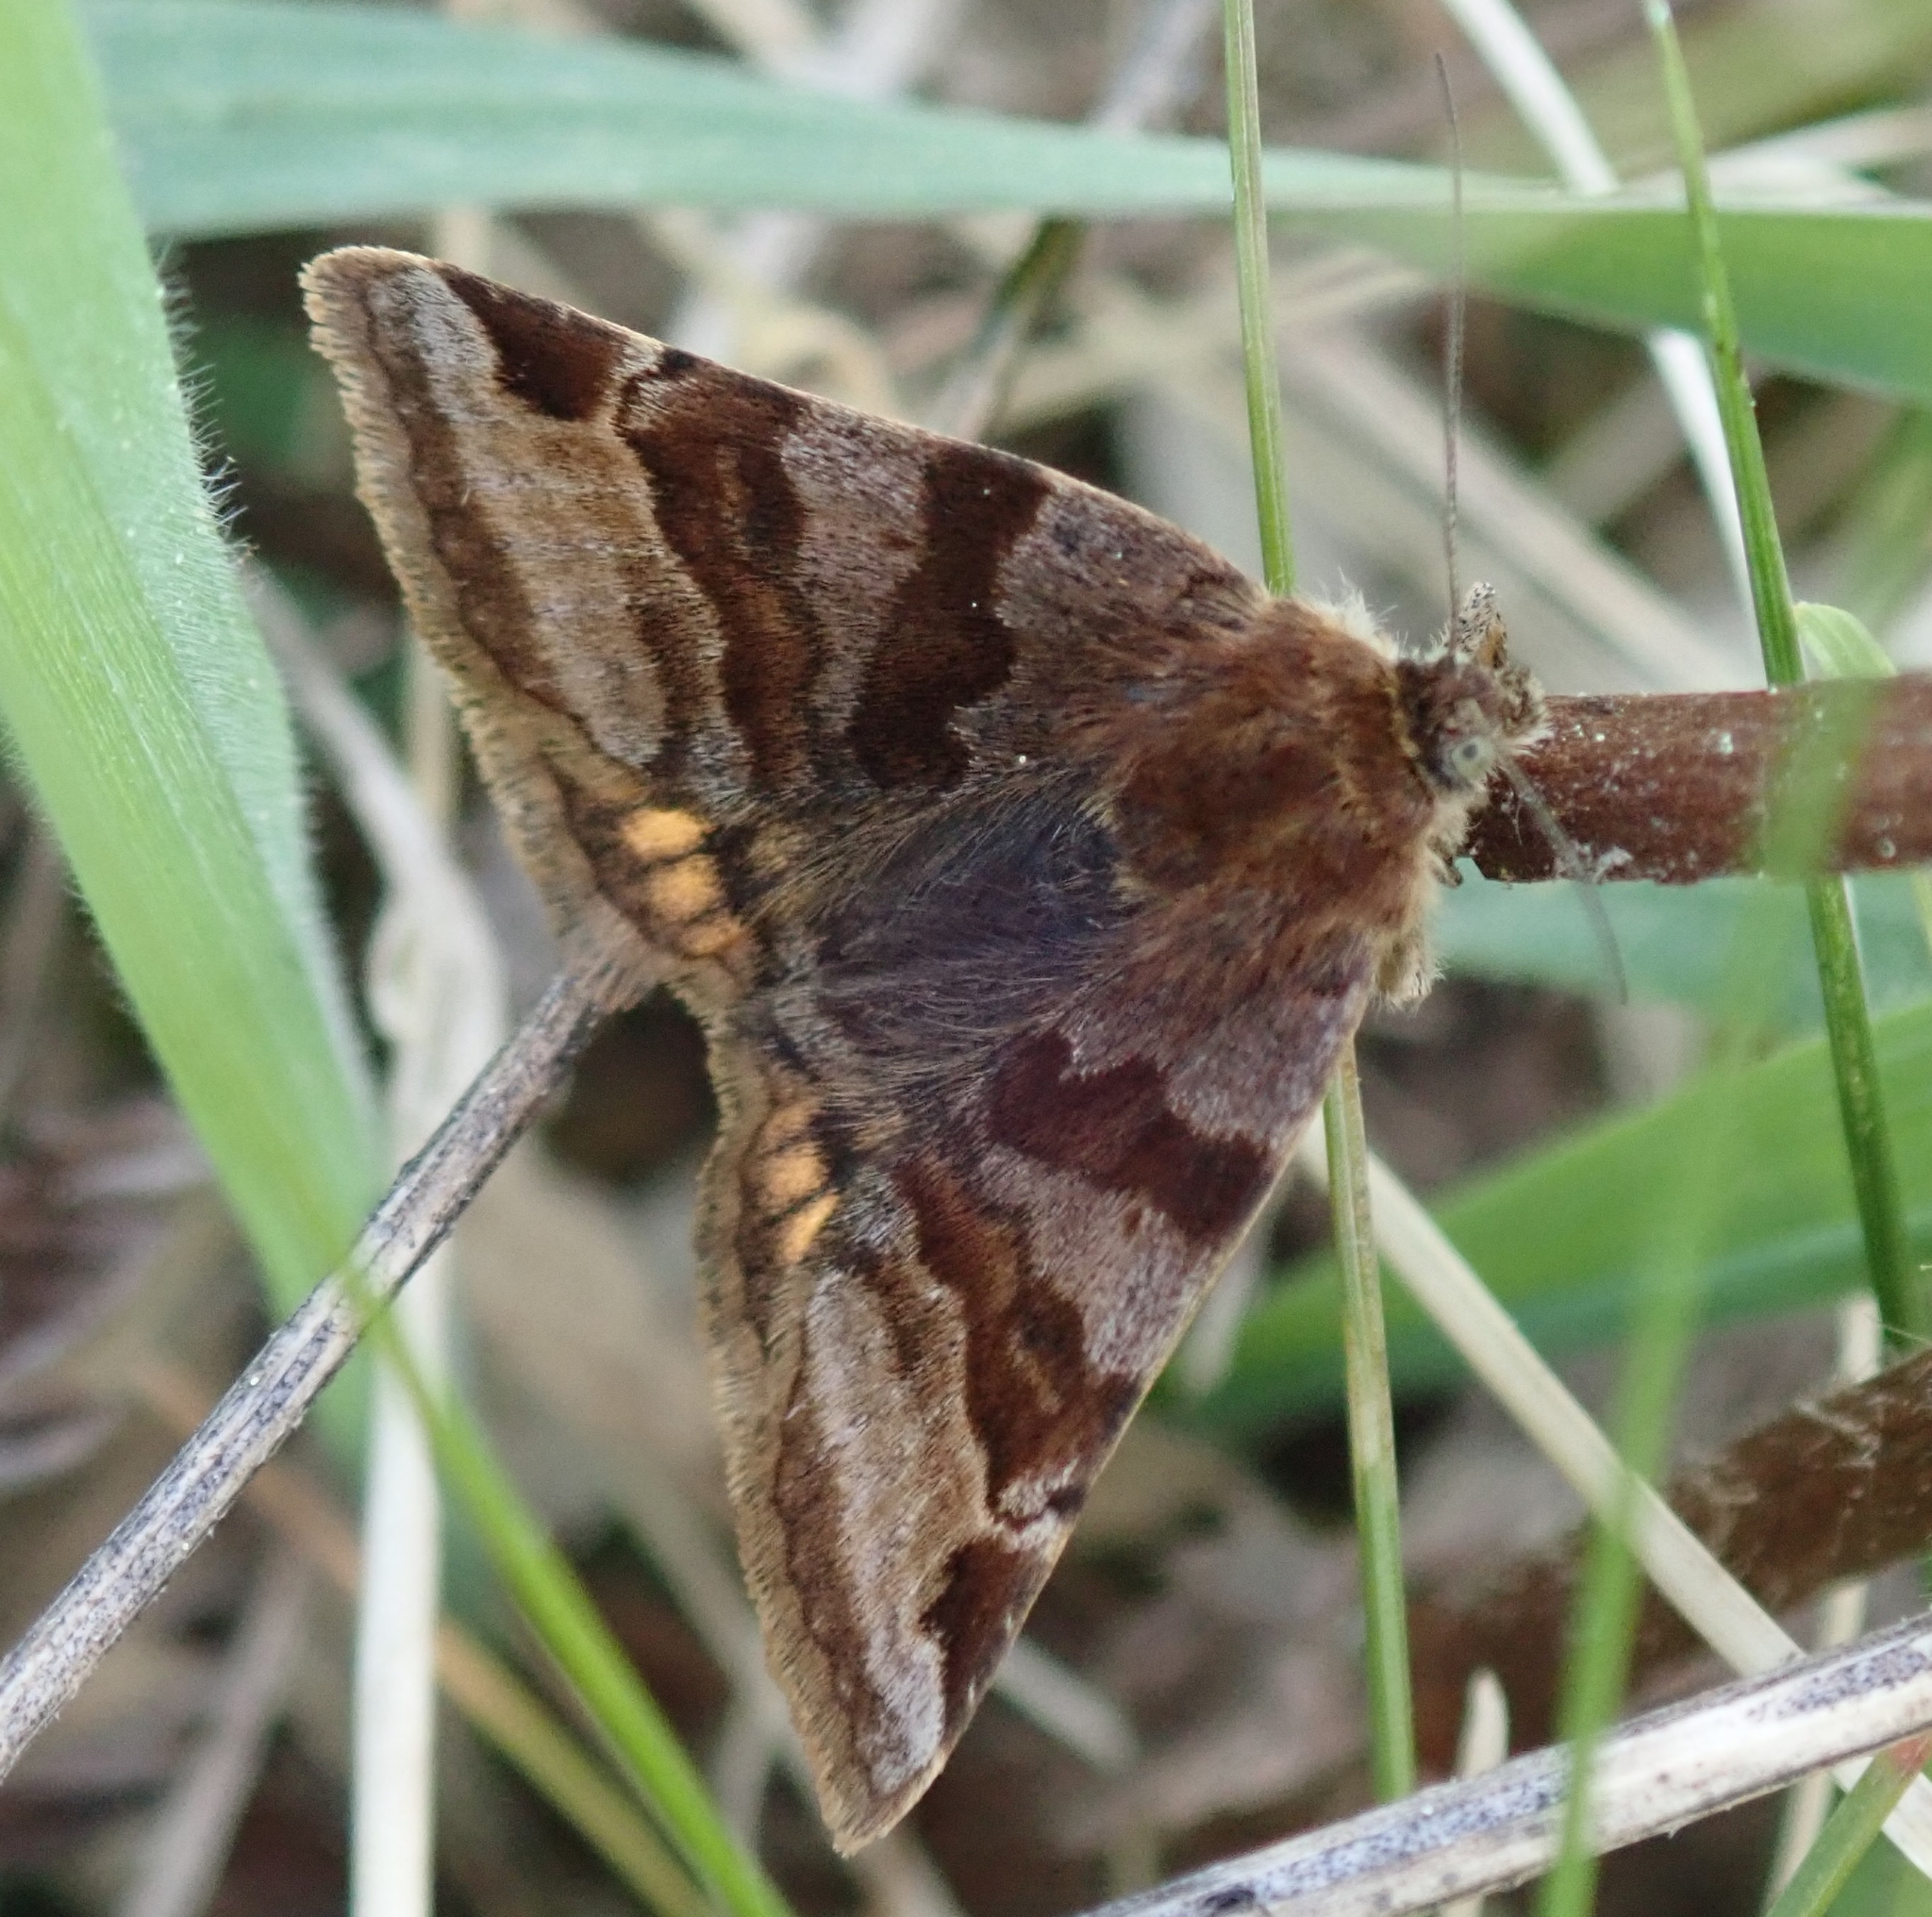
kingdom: Animalia
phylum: Arthropoda
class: Insecta
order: Lepidoptera
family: Erebidae
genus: Euclidia
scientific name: Euclidia glyphica
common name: Burnet companion
